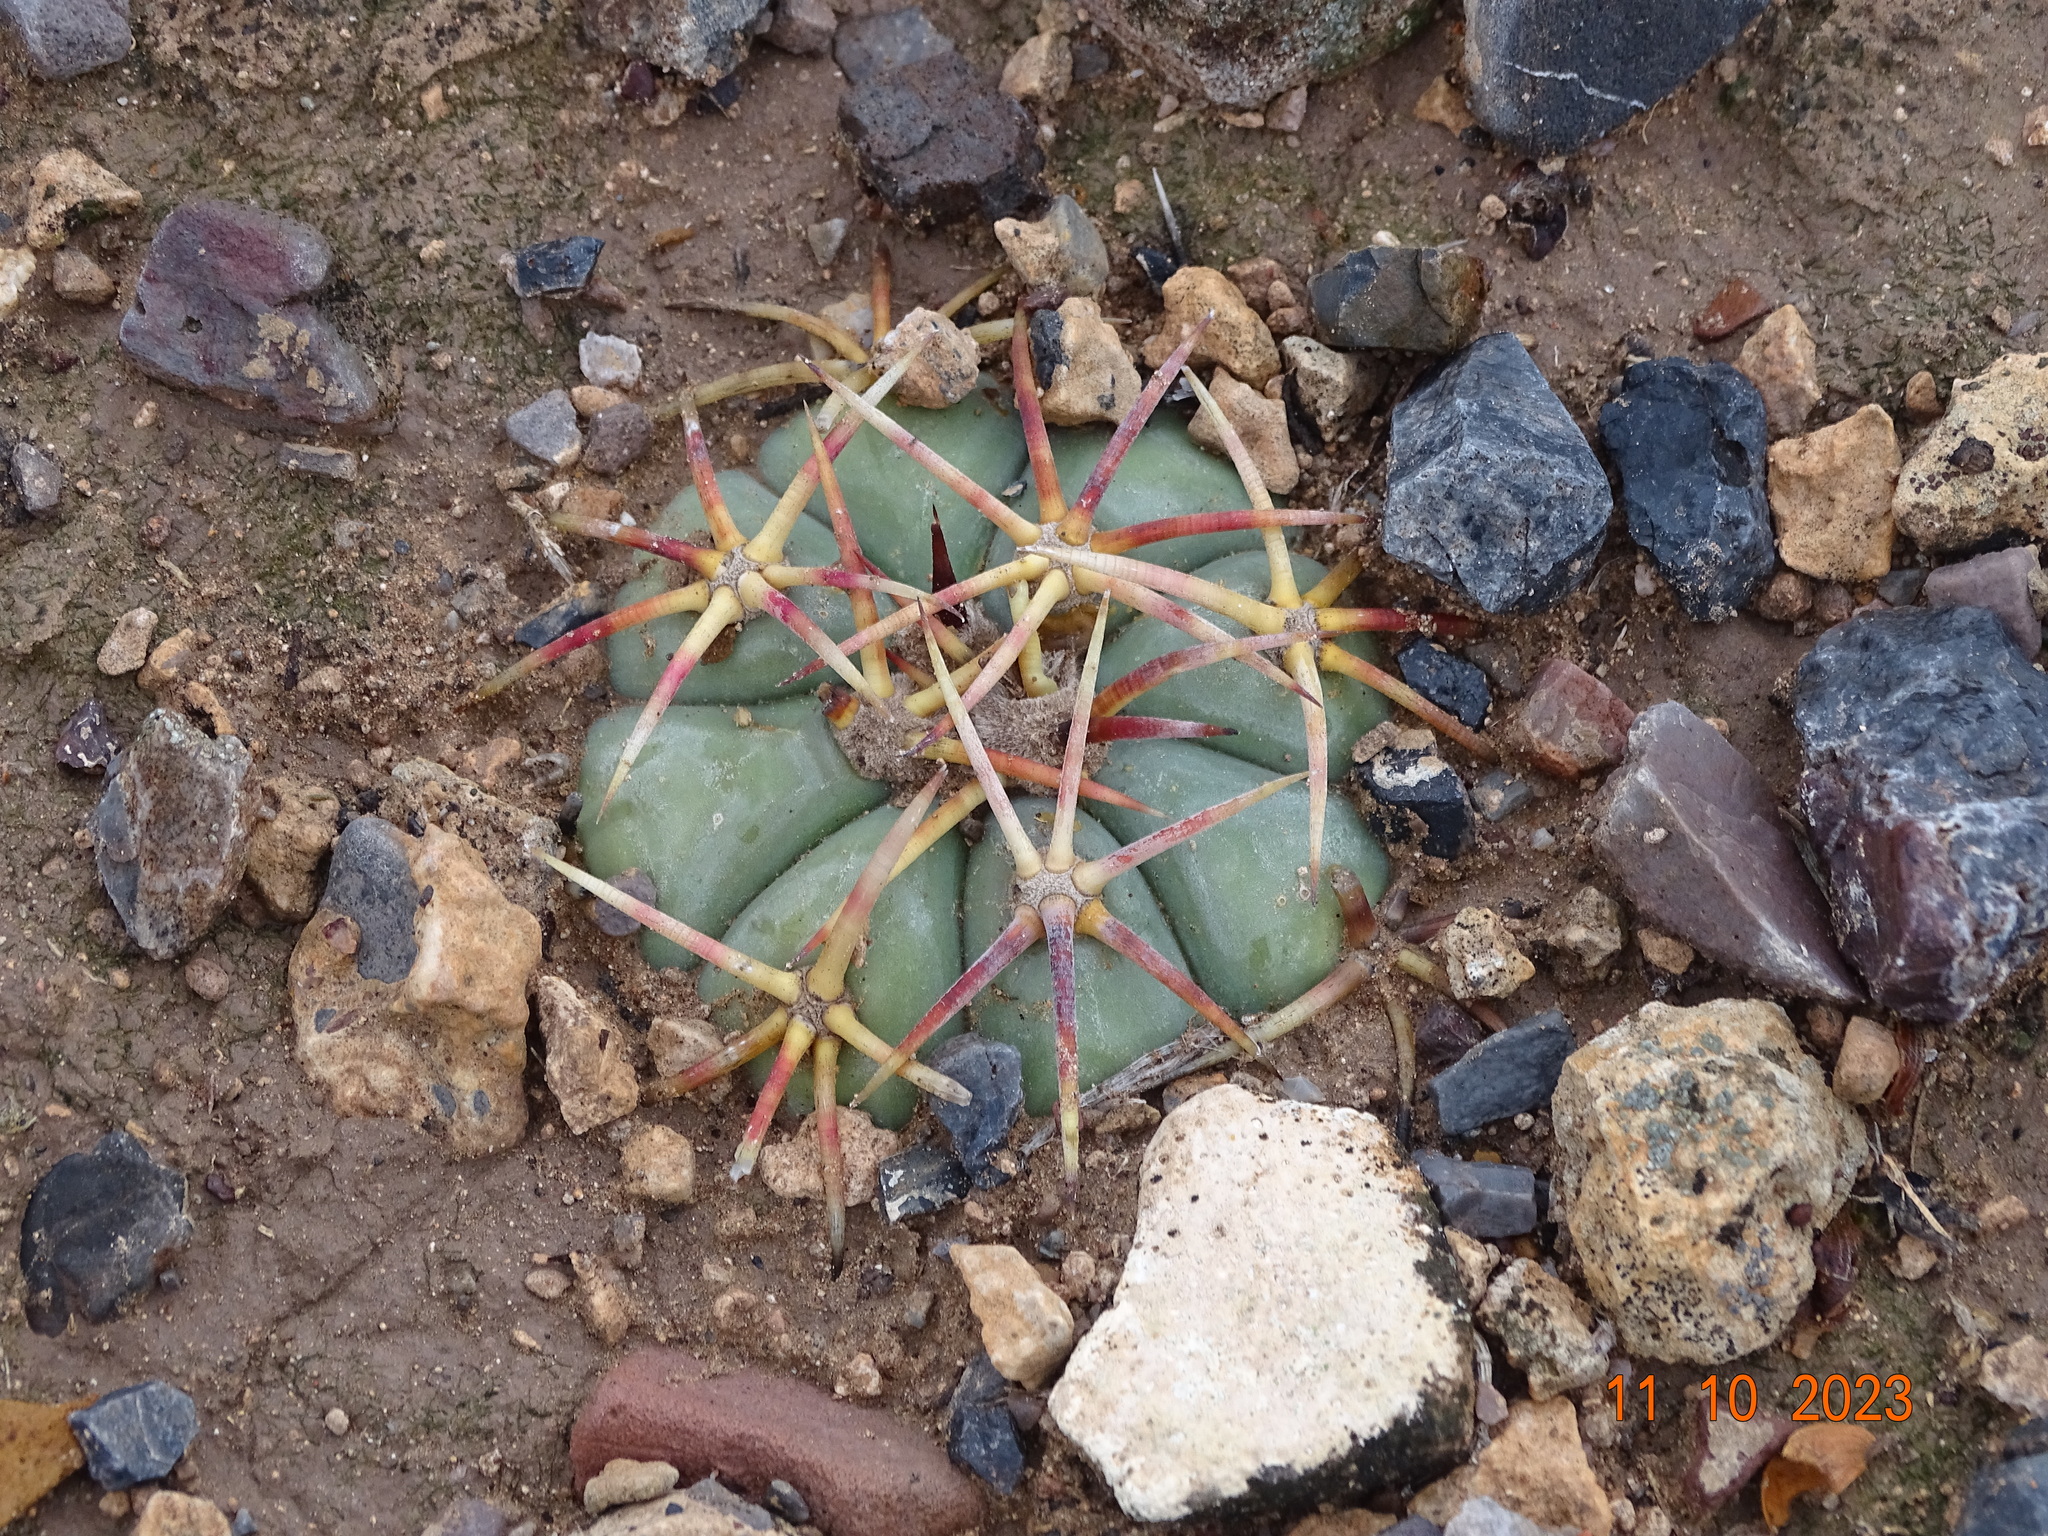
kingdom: Plantae
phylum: Tracheophyta
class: Magnoliopsida
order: Caryophyllales
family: Cactaceae
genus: Echinocactus
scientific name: Echinocactus horizonthalonius
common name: Devilshead
